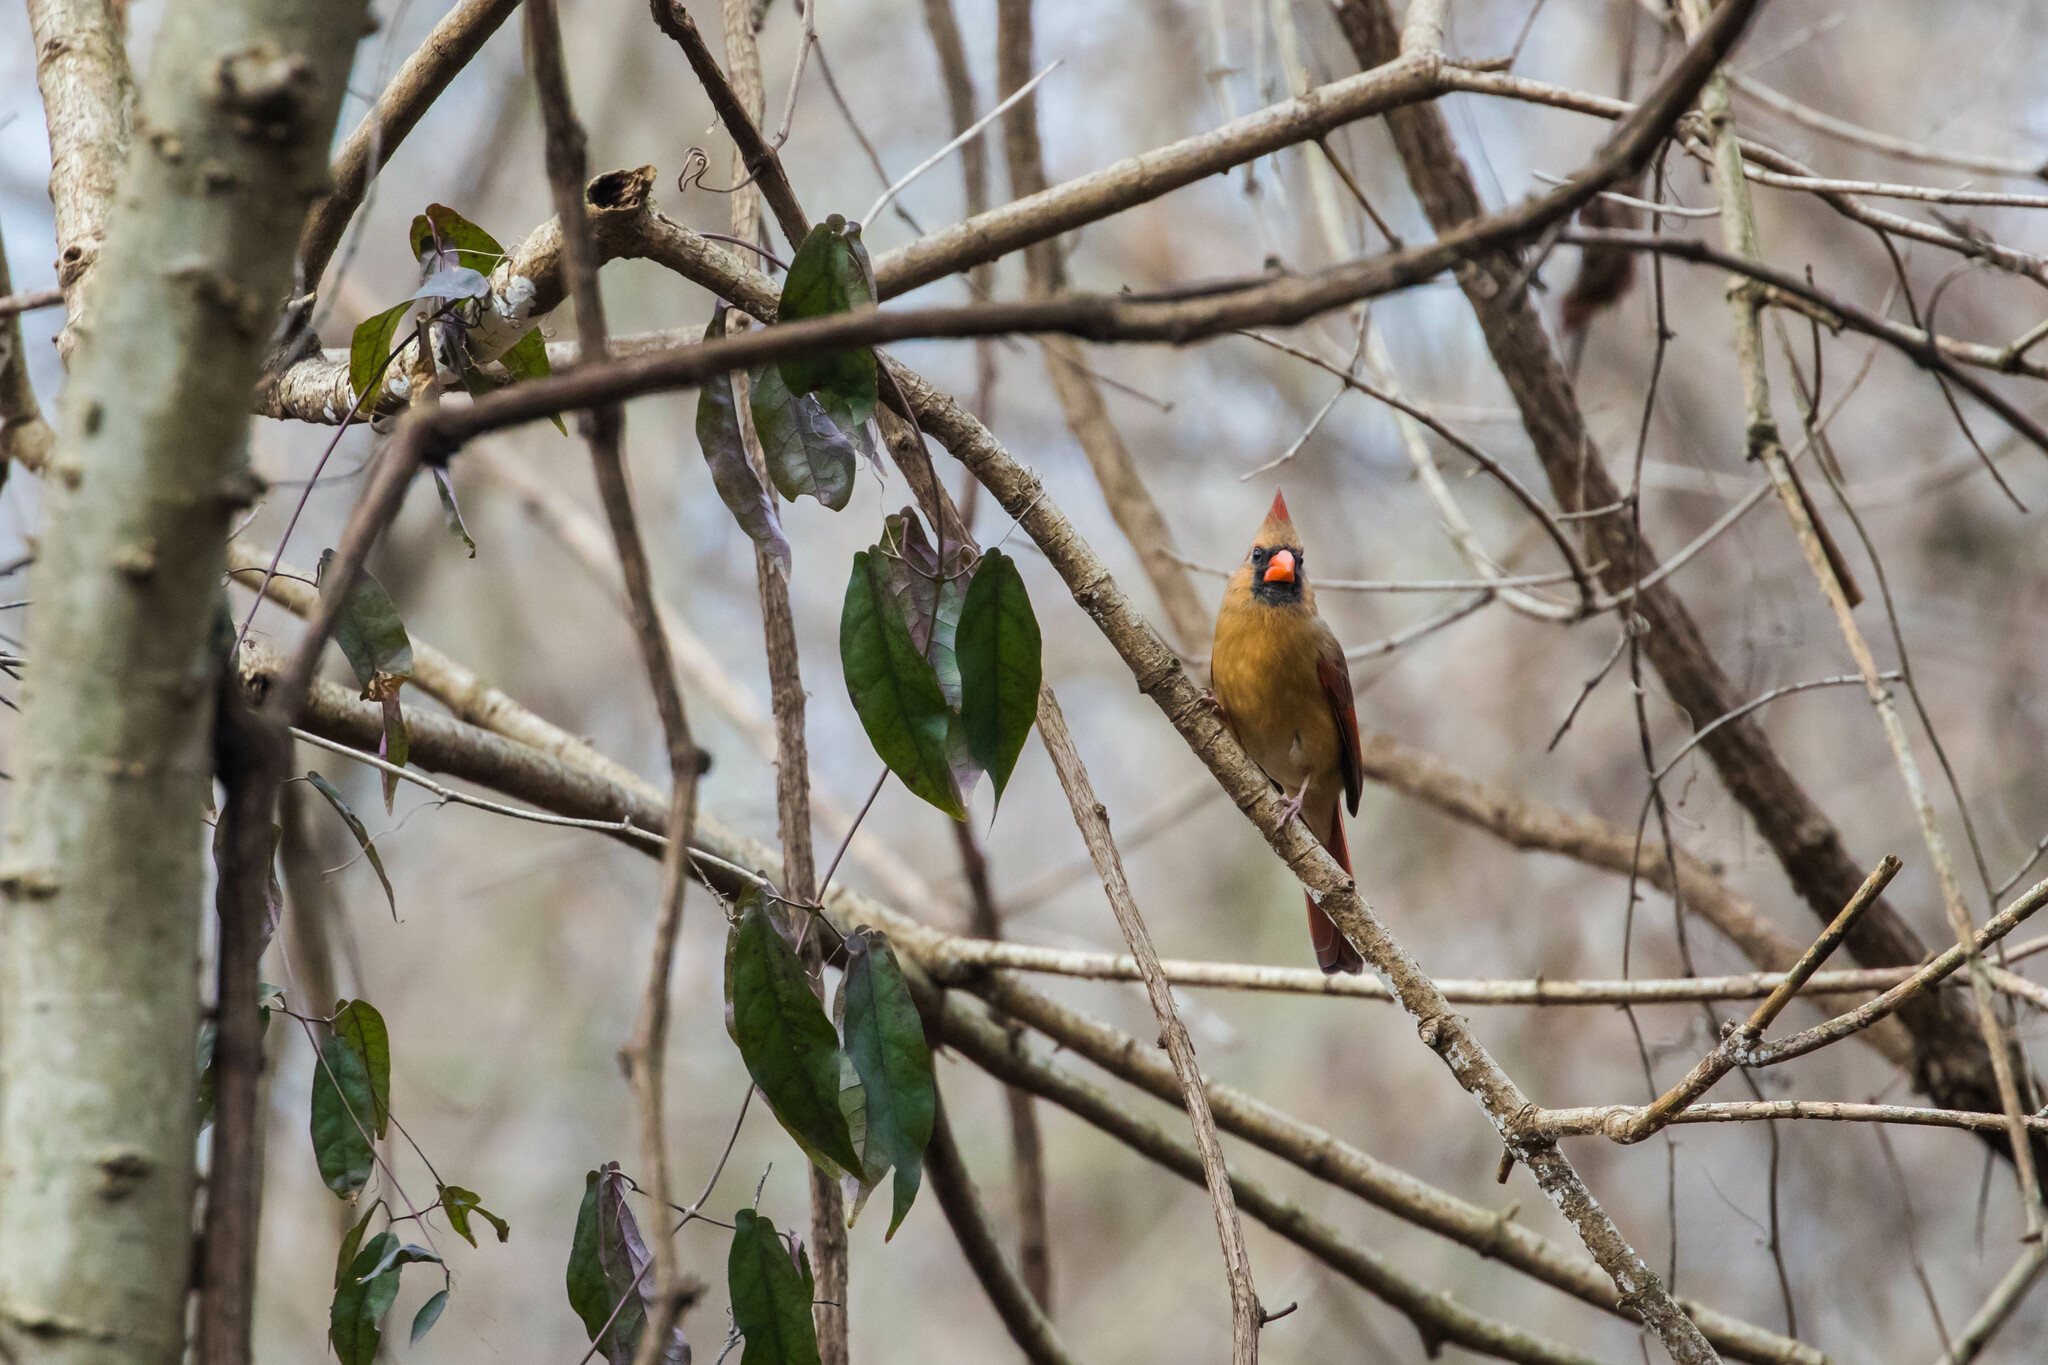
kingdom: Animalia
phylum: Chordata
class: Aves
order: Passeriformes
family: Cardinalidae
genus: Cardinalis
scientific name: Cardinalis cardinalis
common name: Northern cardinal
